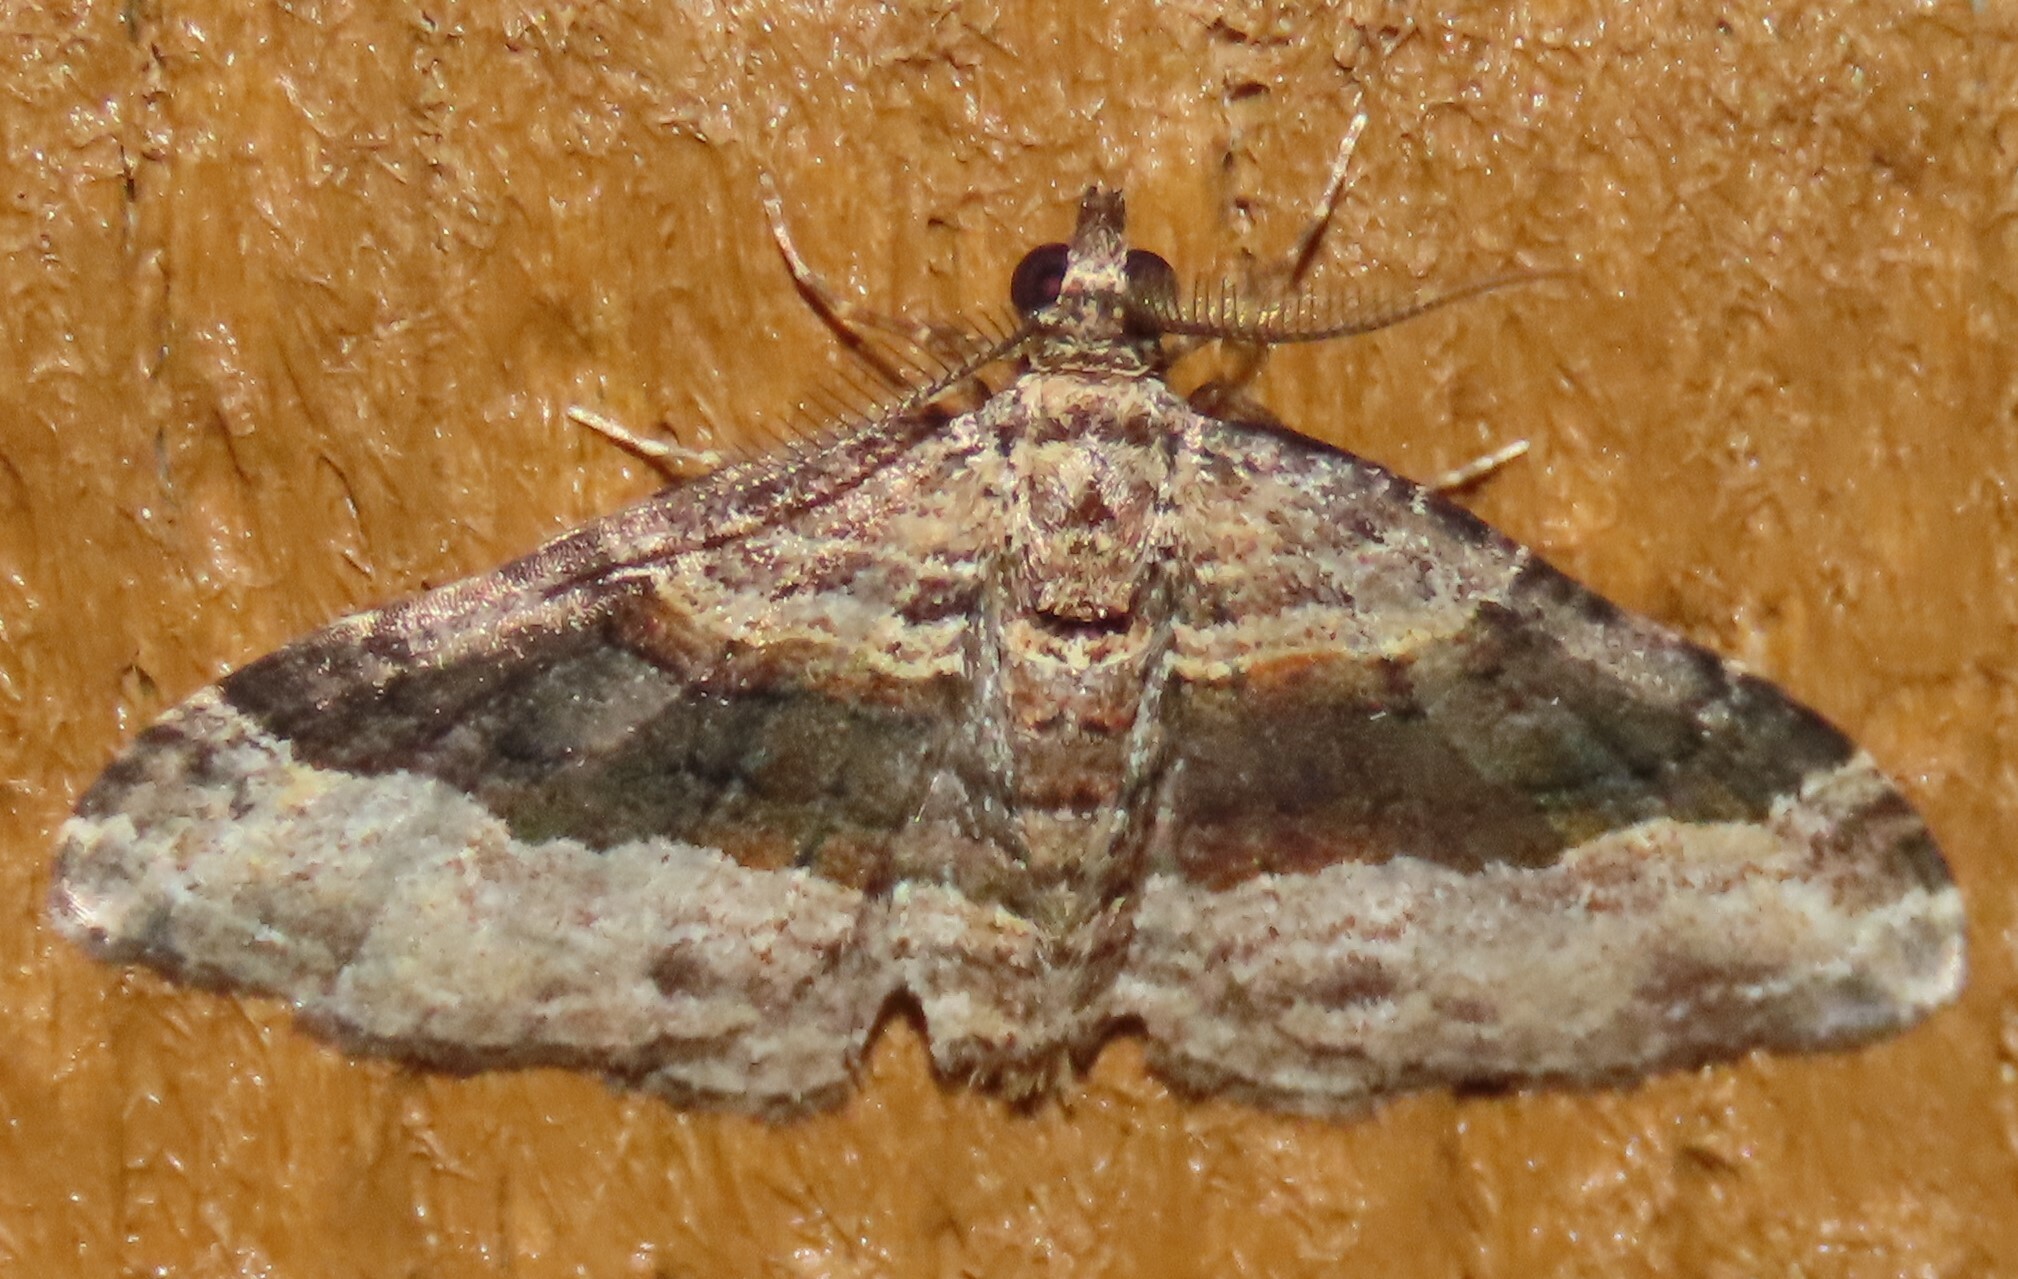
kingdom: Animalia
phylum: Arthropoda
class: Insecta
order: Lepidoptera
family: Geometridae
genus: Epyaxa
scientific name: Epyaxa lucidata
